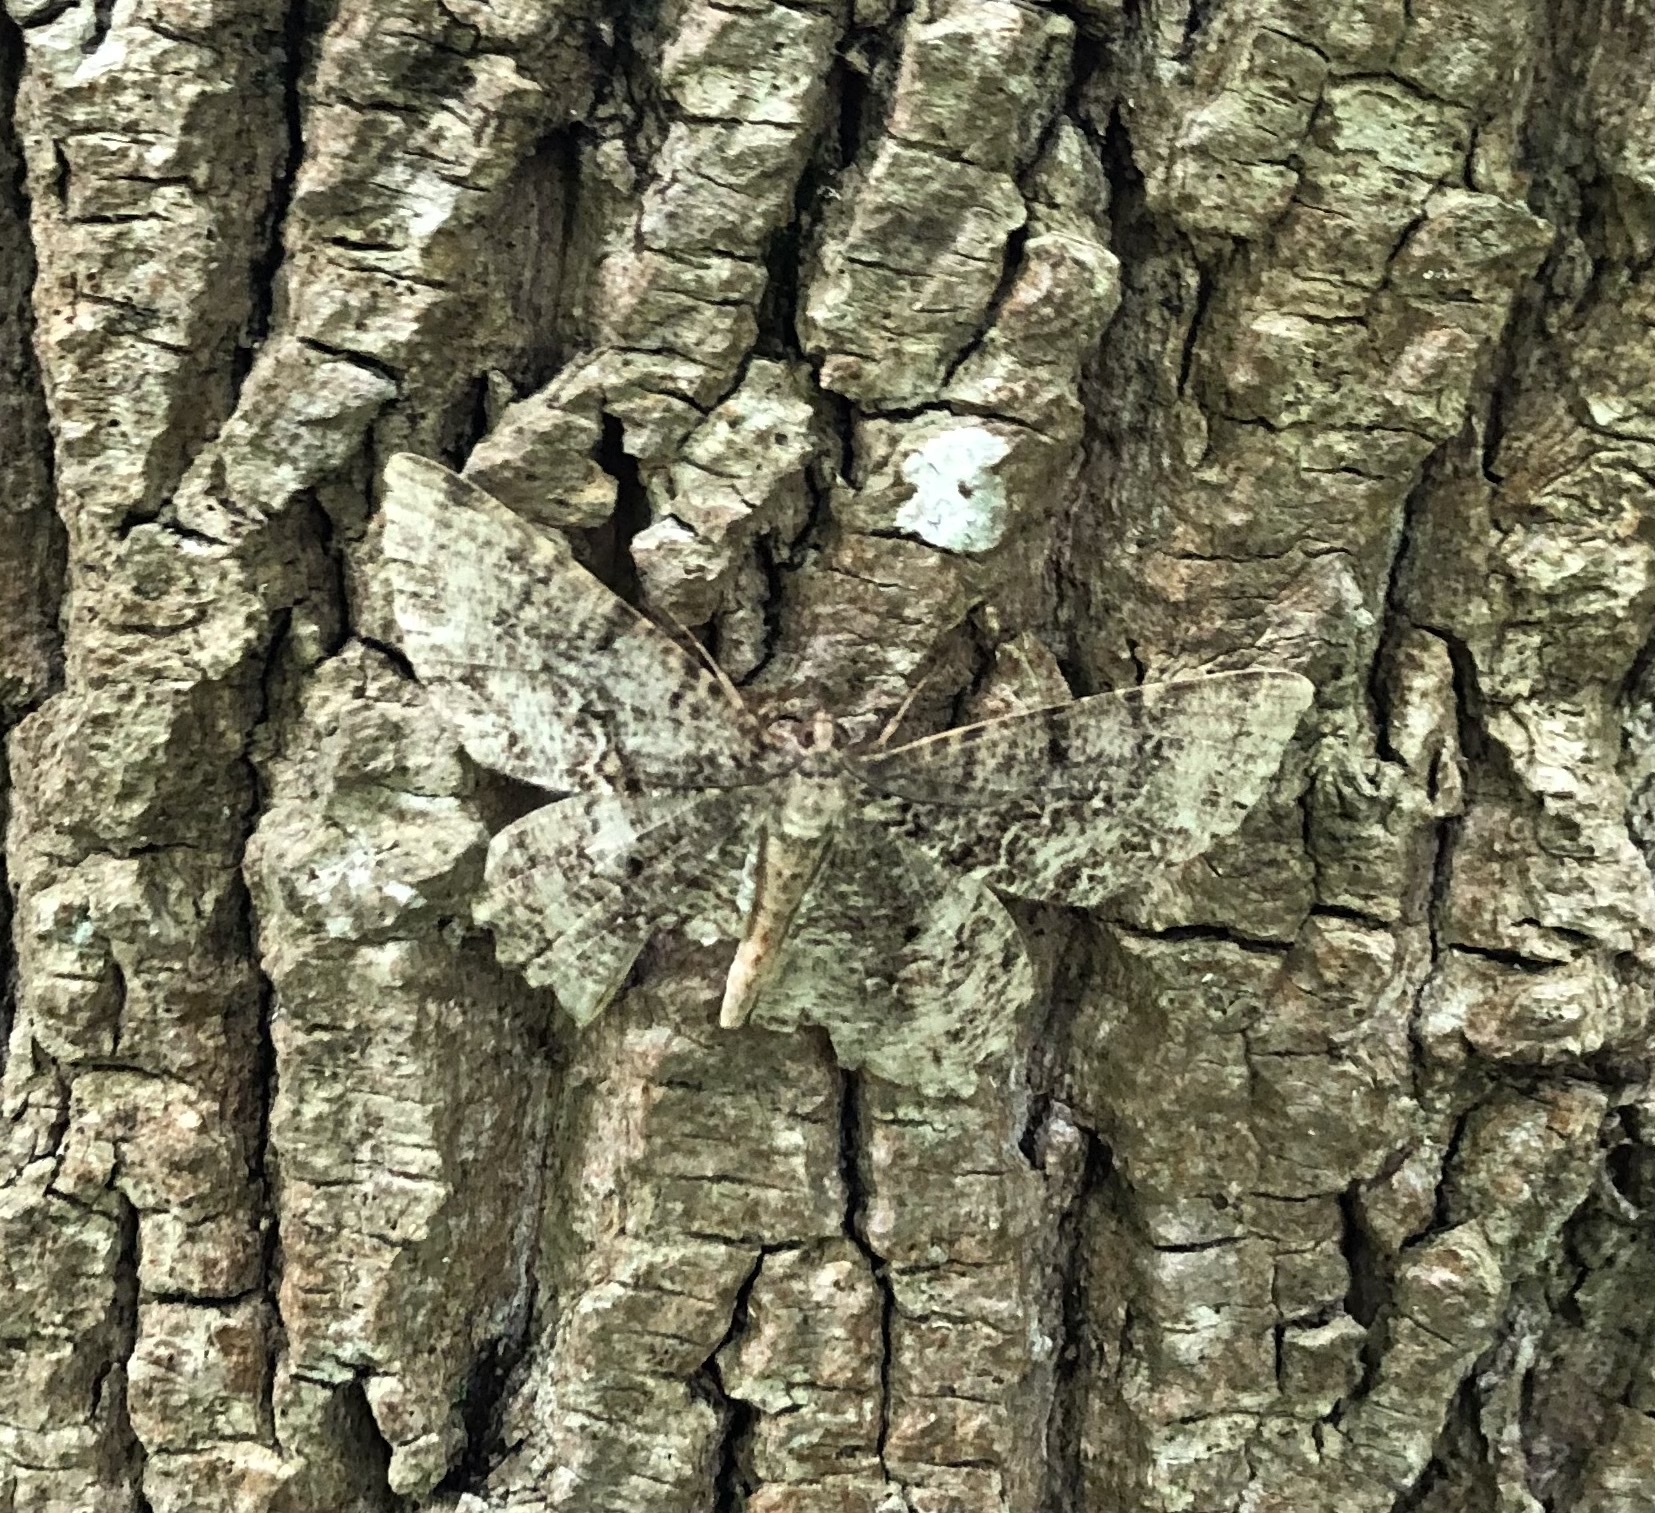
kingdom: Animalia
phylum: Arthropoda
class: Insecta
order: Lepidoptera
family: Geometridae
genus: Epimecis
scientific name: Epimecis hortaria
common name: Tulip-tree beauty
